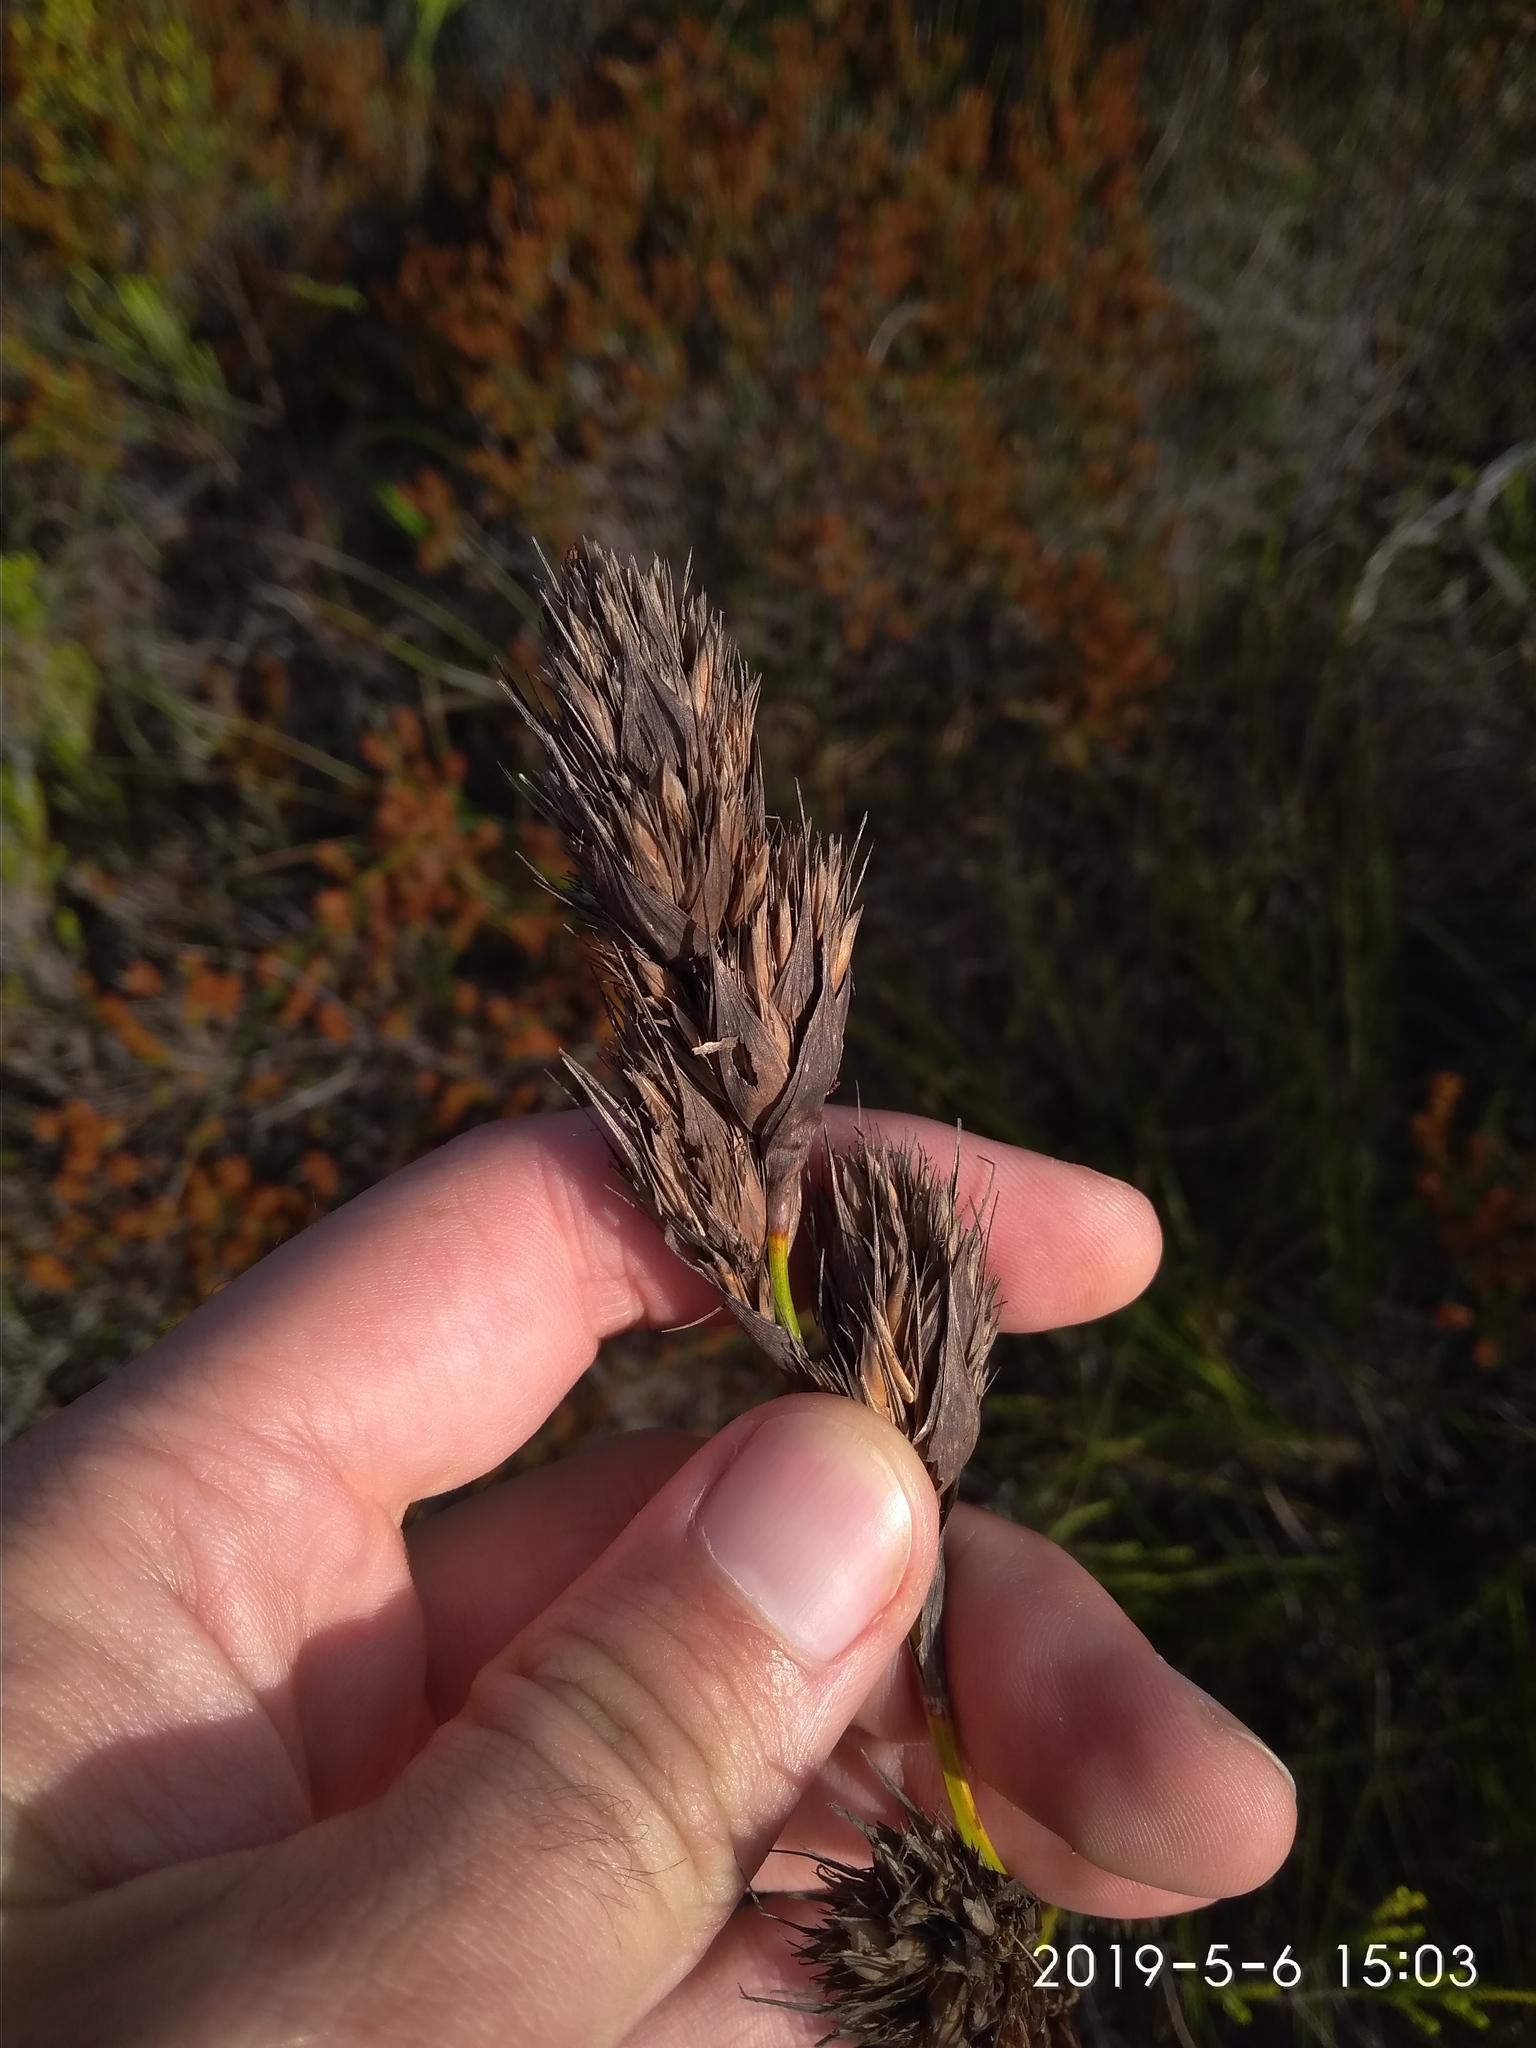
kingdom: Plantae
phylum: Tracheophyta
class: Liliopsida
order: Poales
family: Cyperaceae
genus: Tetraria
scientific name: Tetraria bromoides
